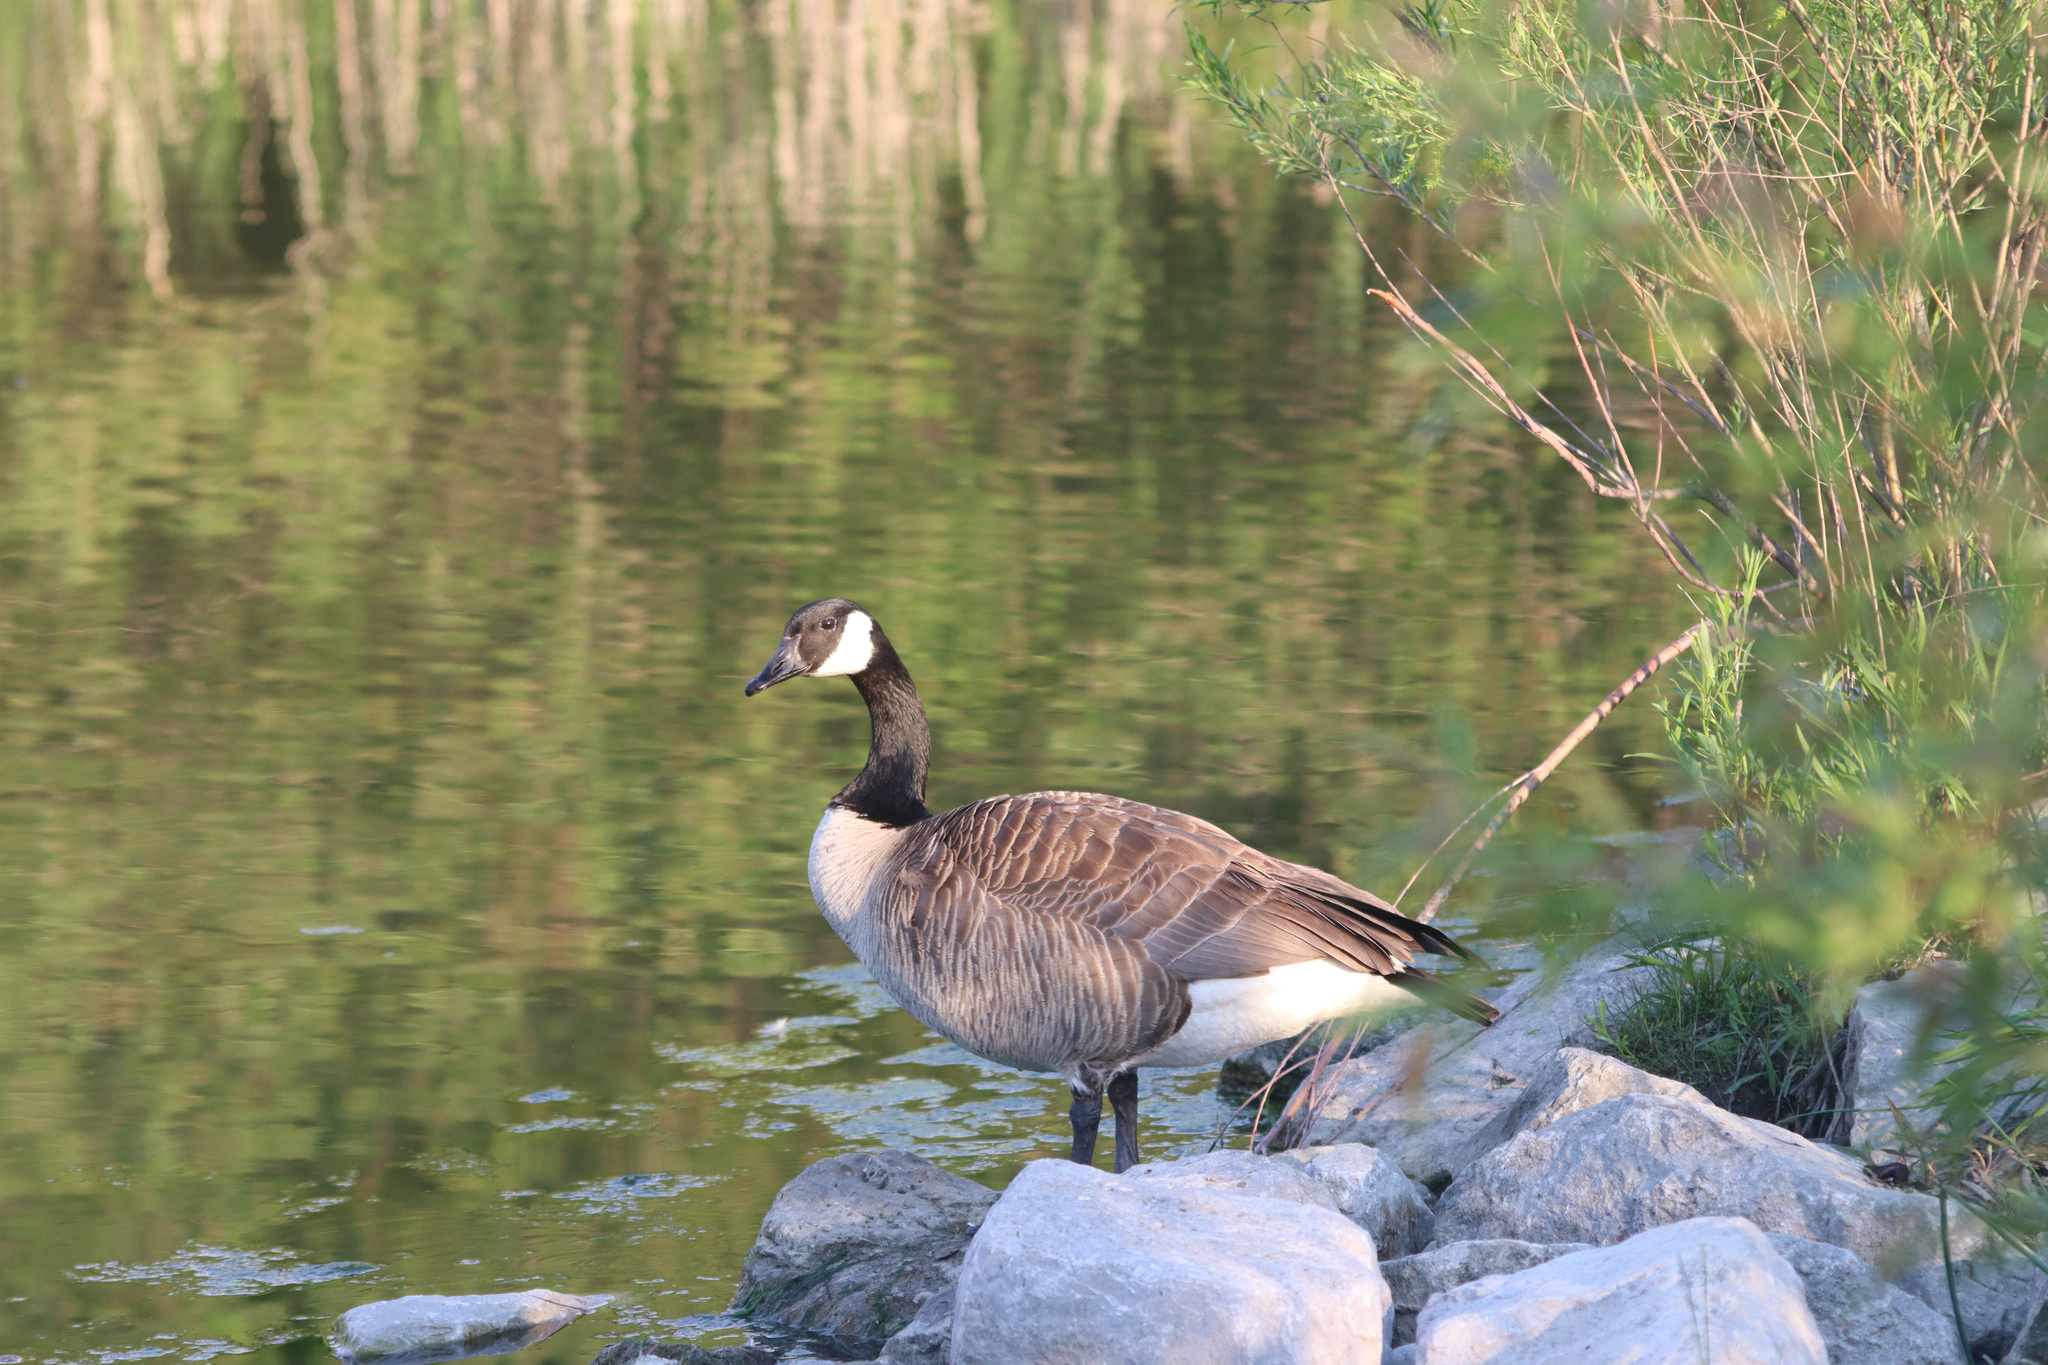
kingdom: Animalia
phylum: Chordata
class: Aves
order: Anseriformes
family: Anatidae
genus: Branta
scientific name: Branta canadensis
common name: Canada goose
